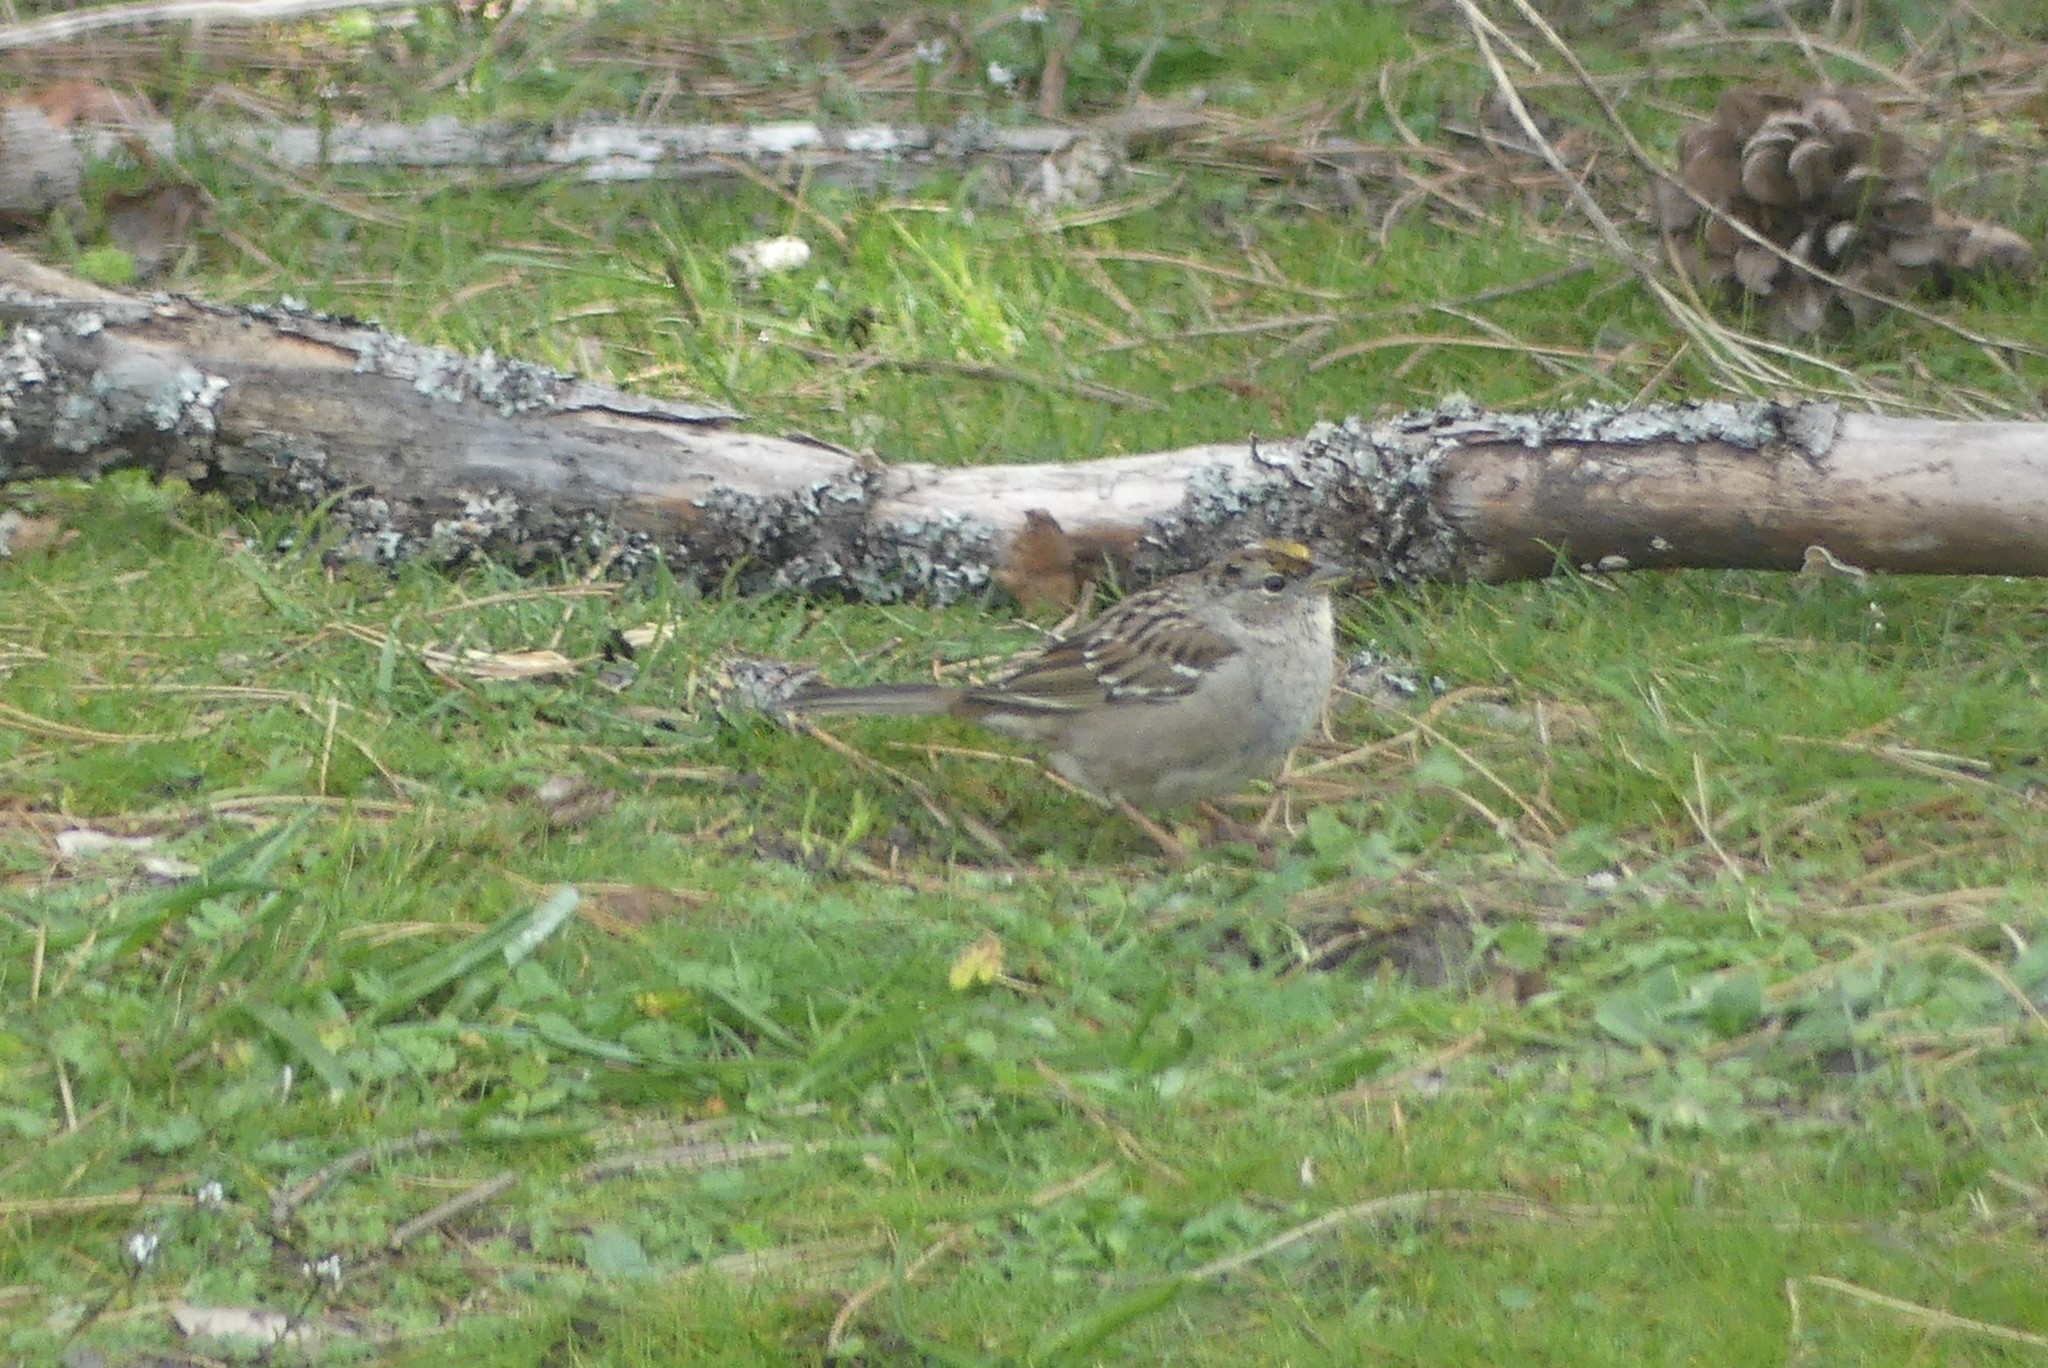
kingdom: Animalia
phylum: Chordata
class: Aves
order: Passeriformes
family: Passerellidae
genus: Zonotrichia
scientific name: Zonotrichia atricapilla
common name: Golden-crowned sparrow
